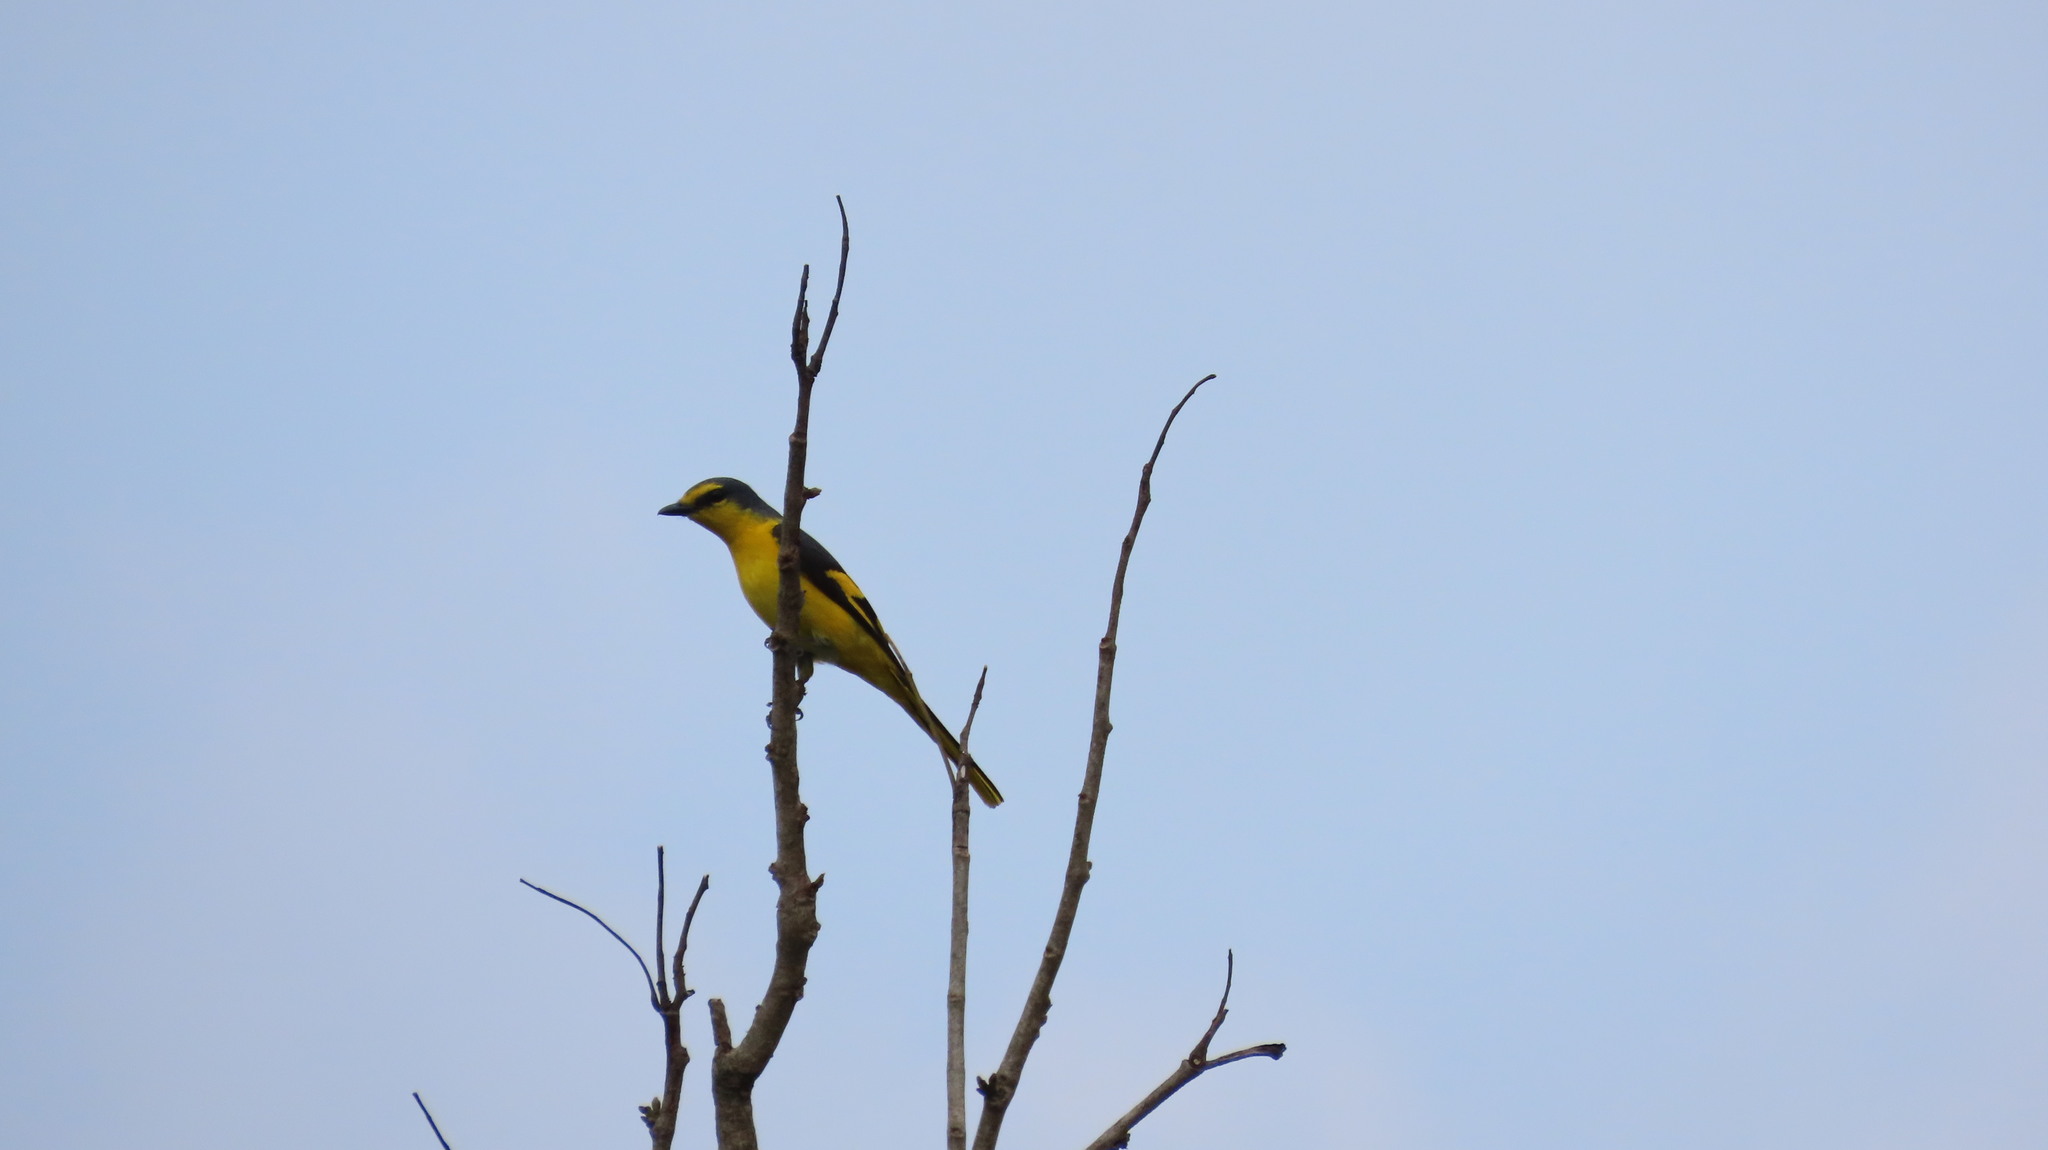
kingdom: Animalia
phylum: Chordata
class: Aves
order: Passeriformes
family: Campephagidae
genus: Pericrocotus
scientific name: Pericrocotus flammeus
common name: Orange minivet
